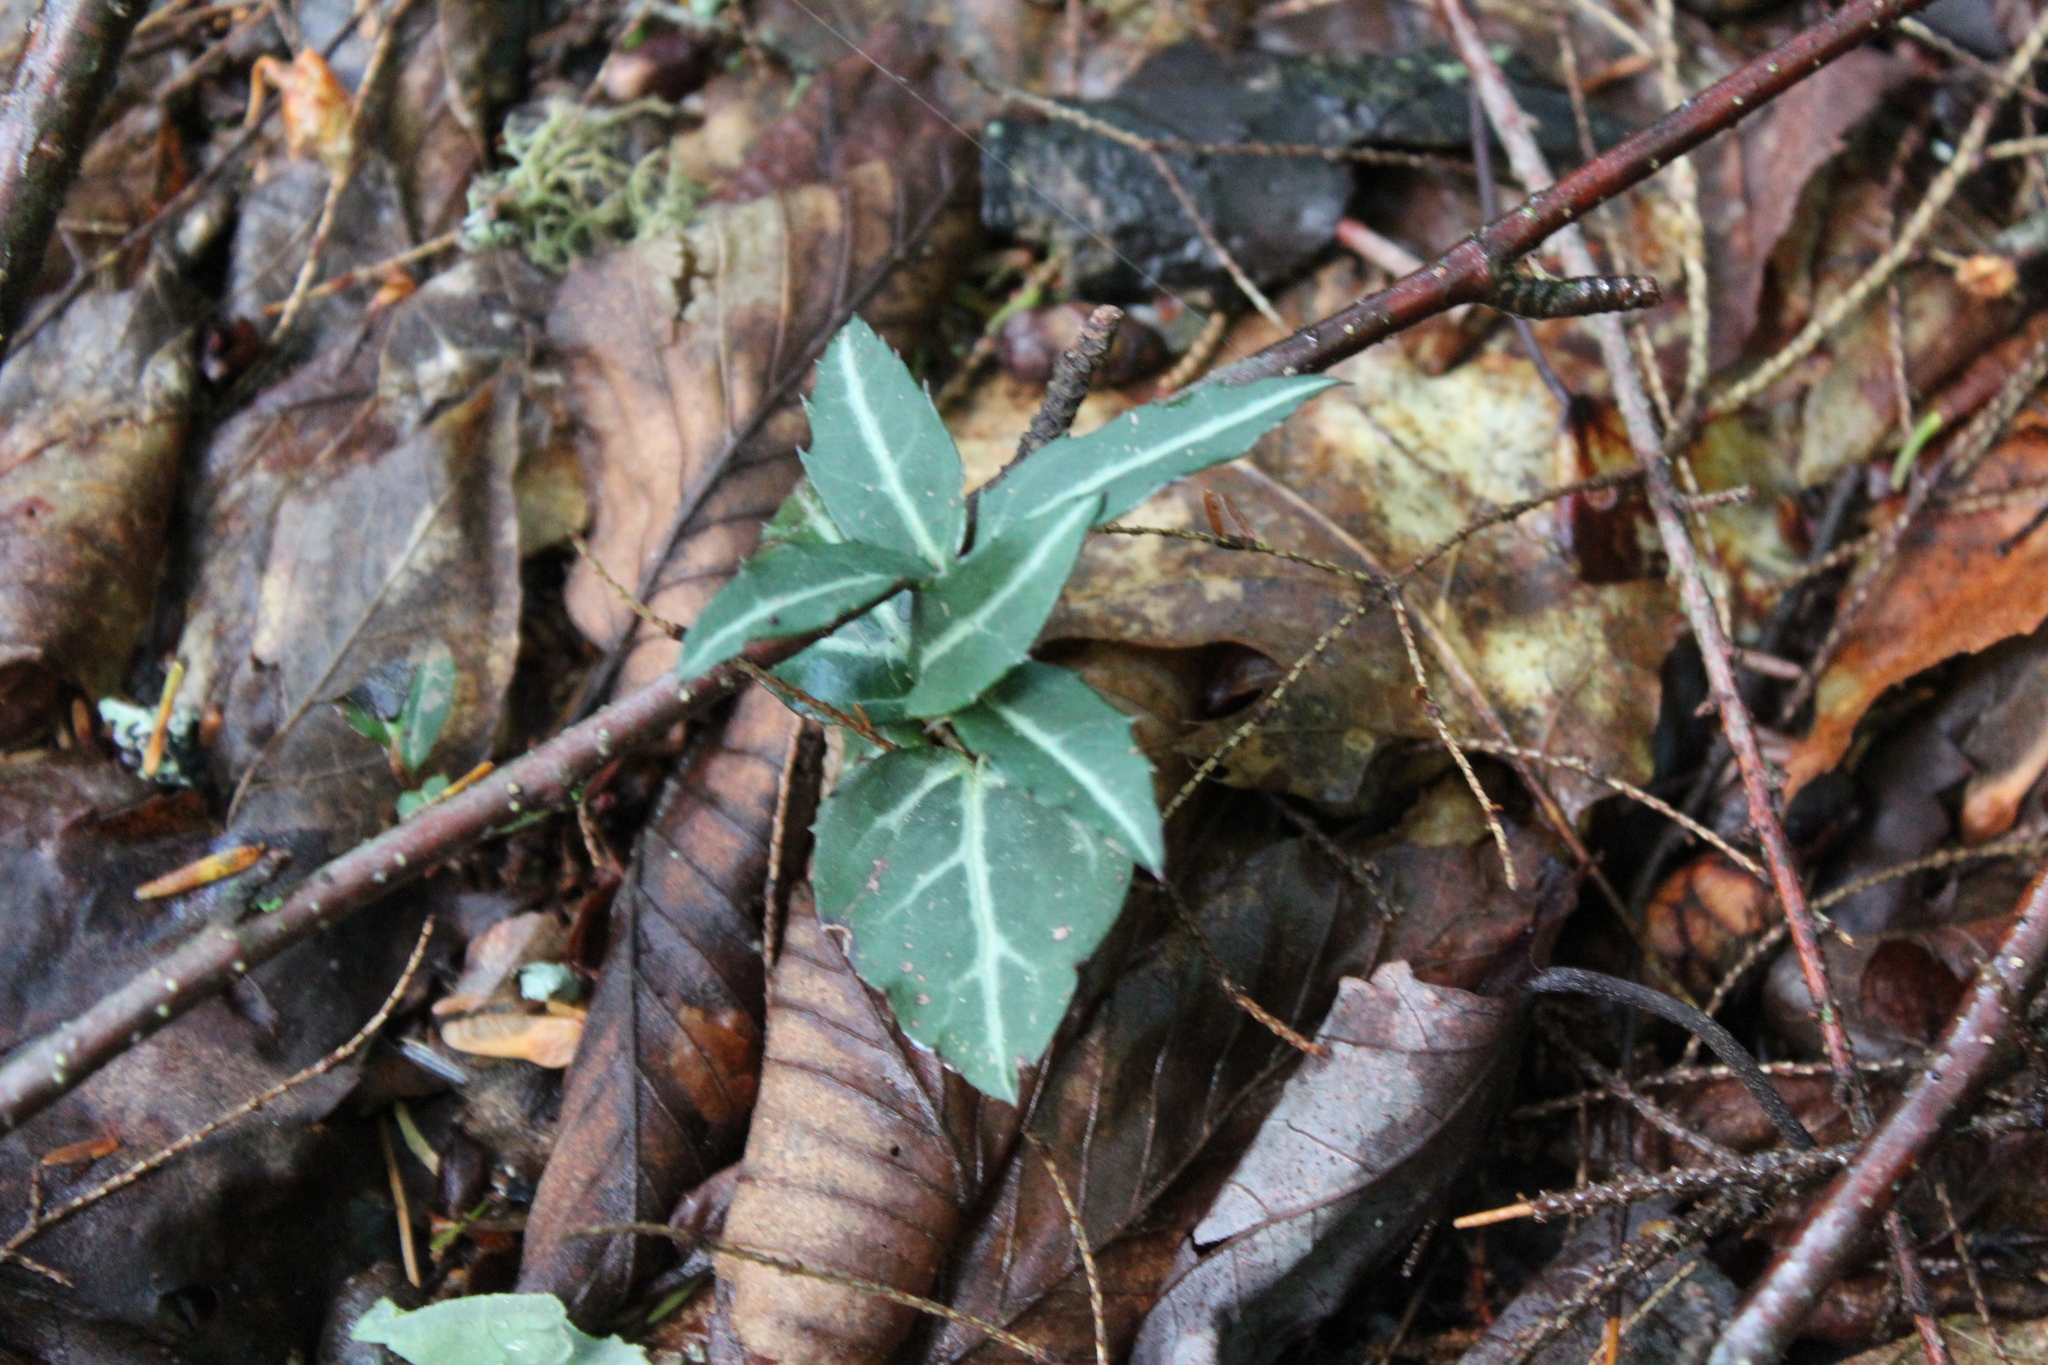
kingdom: Plantae
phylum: Tracheophyta
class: Magnoliopsida
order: Ericales
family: Ericaceae
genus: Chimaphila
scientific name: Chimaphila maculata
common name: Spotted pipsissewa
